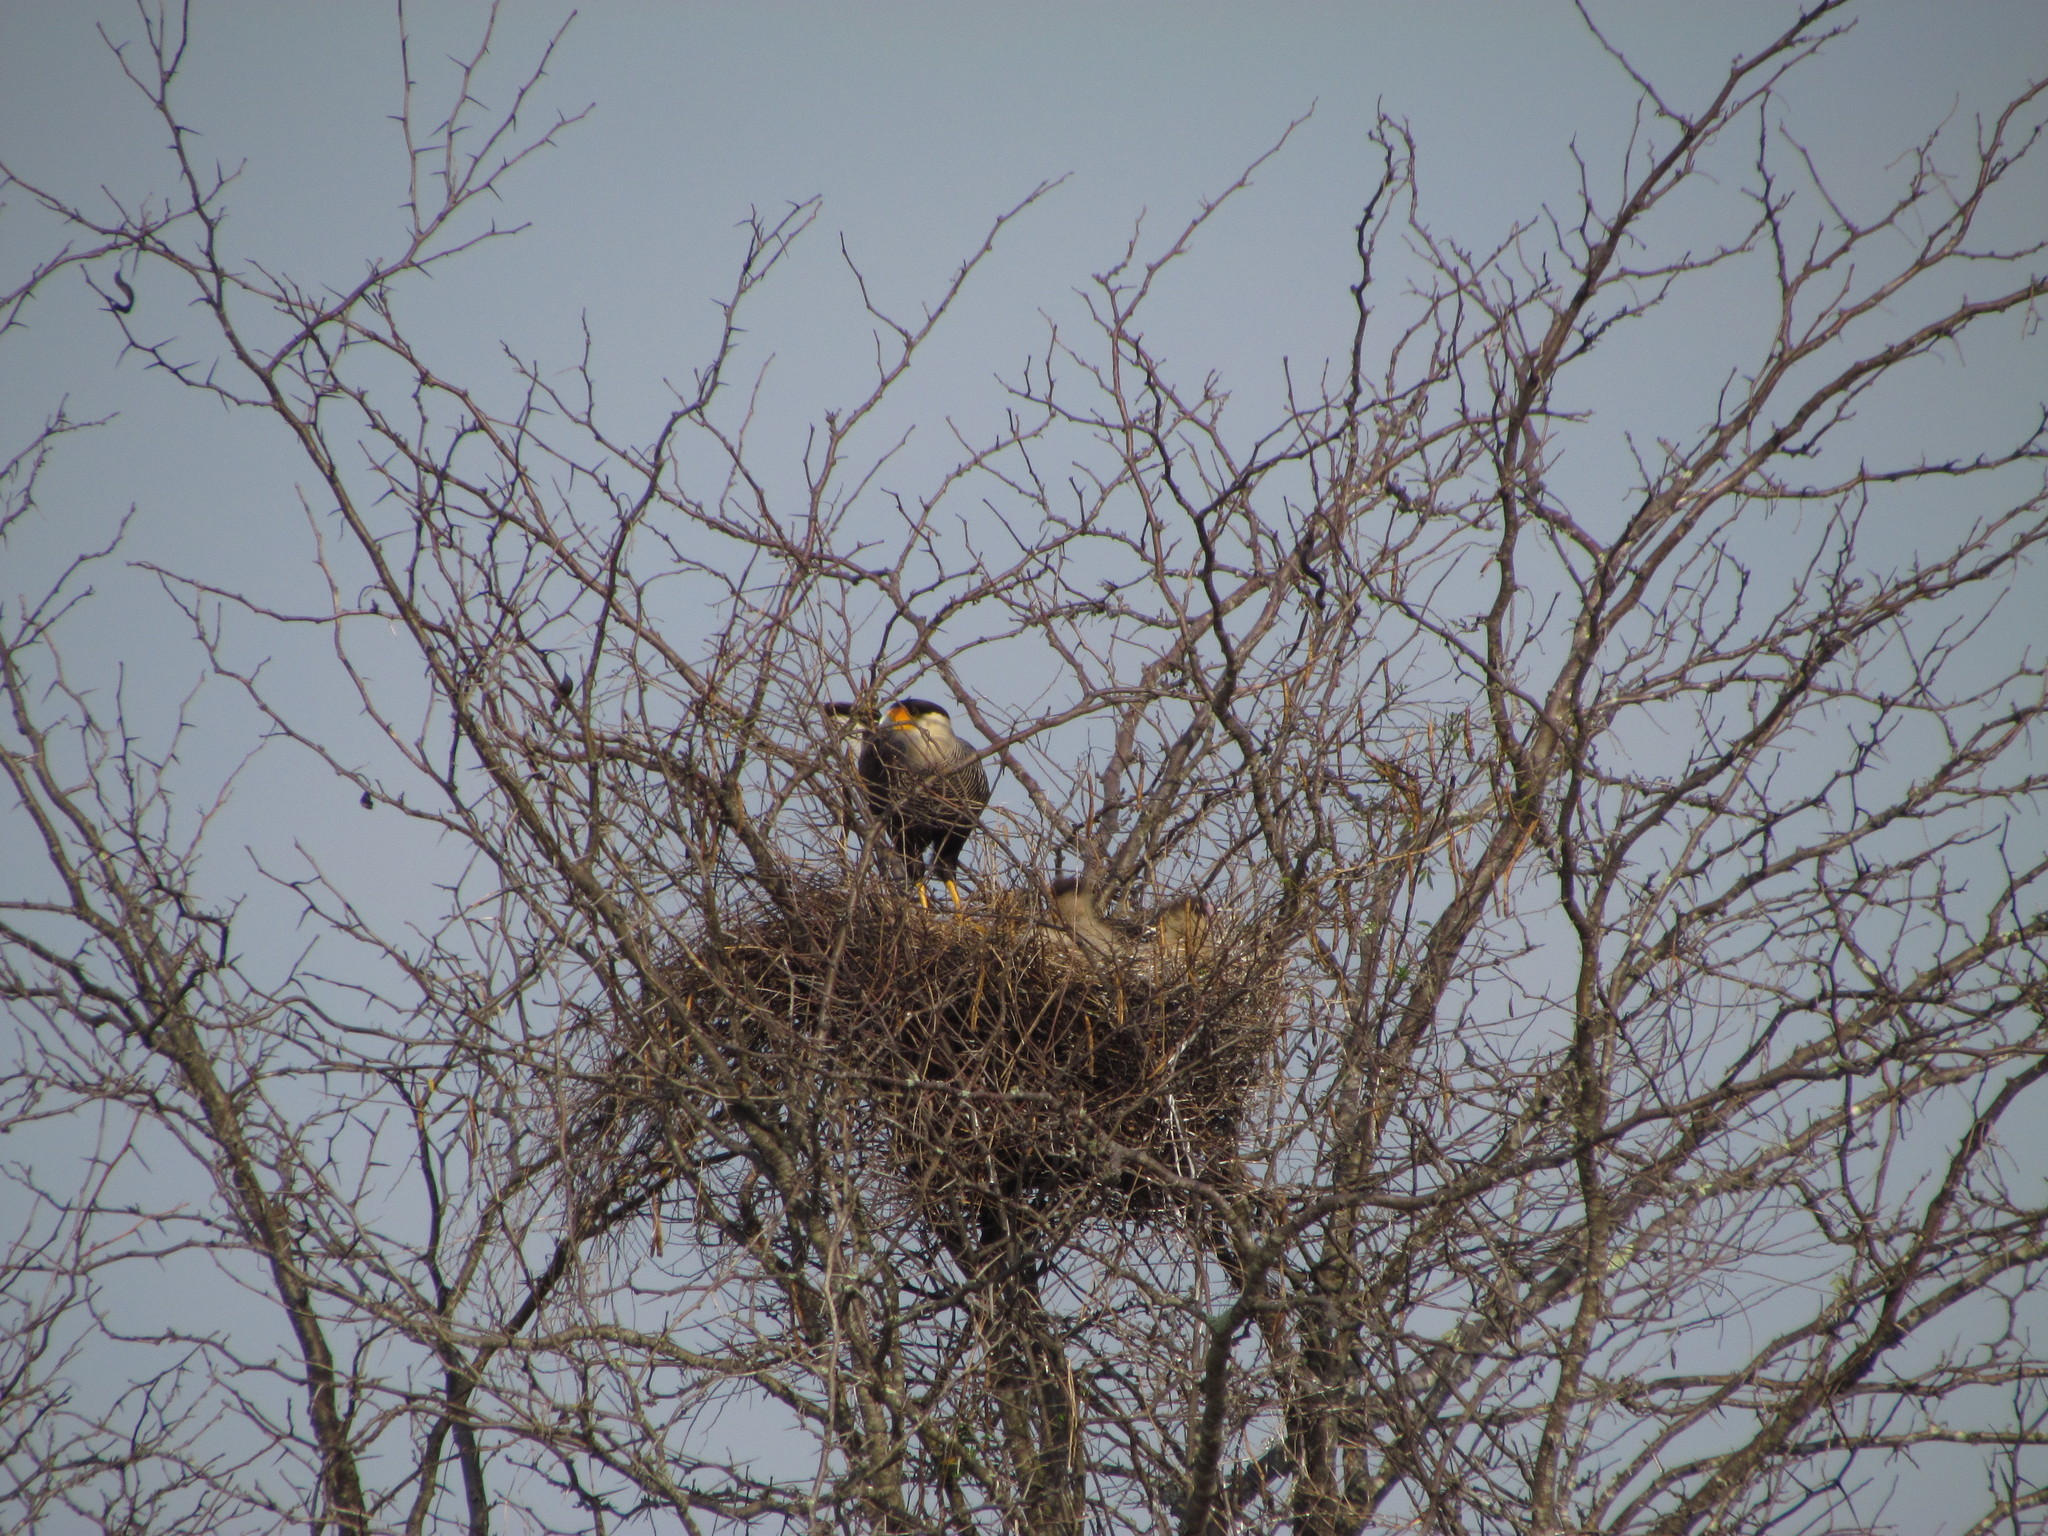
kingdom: Animalia
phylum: Chordata
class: Aves
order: Falconiformes
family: Falconidae
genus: Caracara
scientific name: Caracara plancus
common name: Southern caracara
